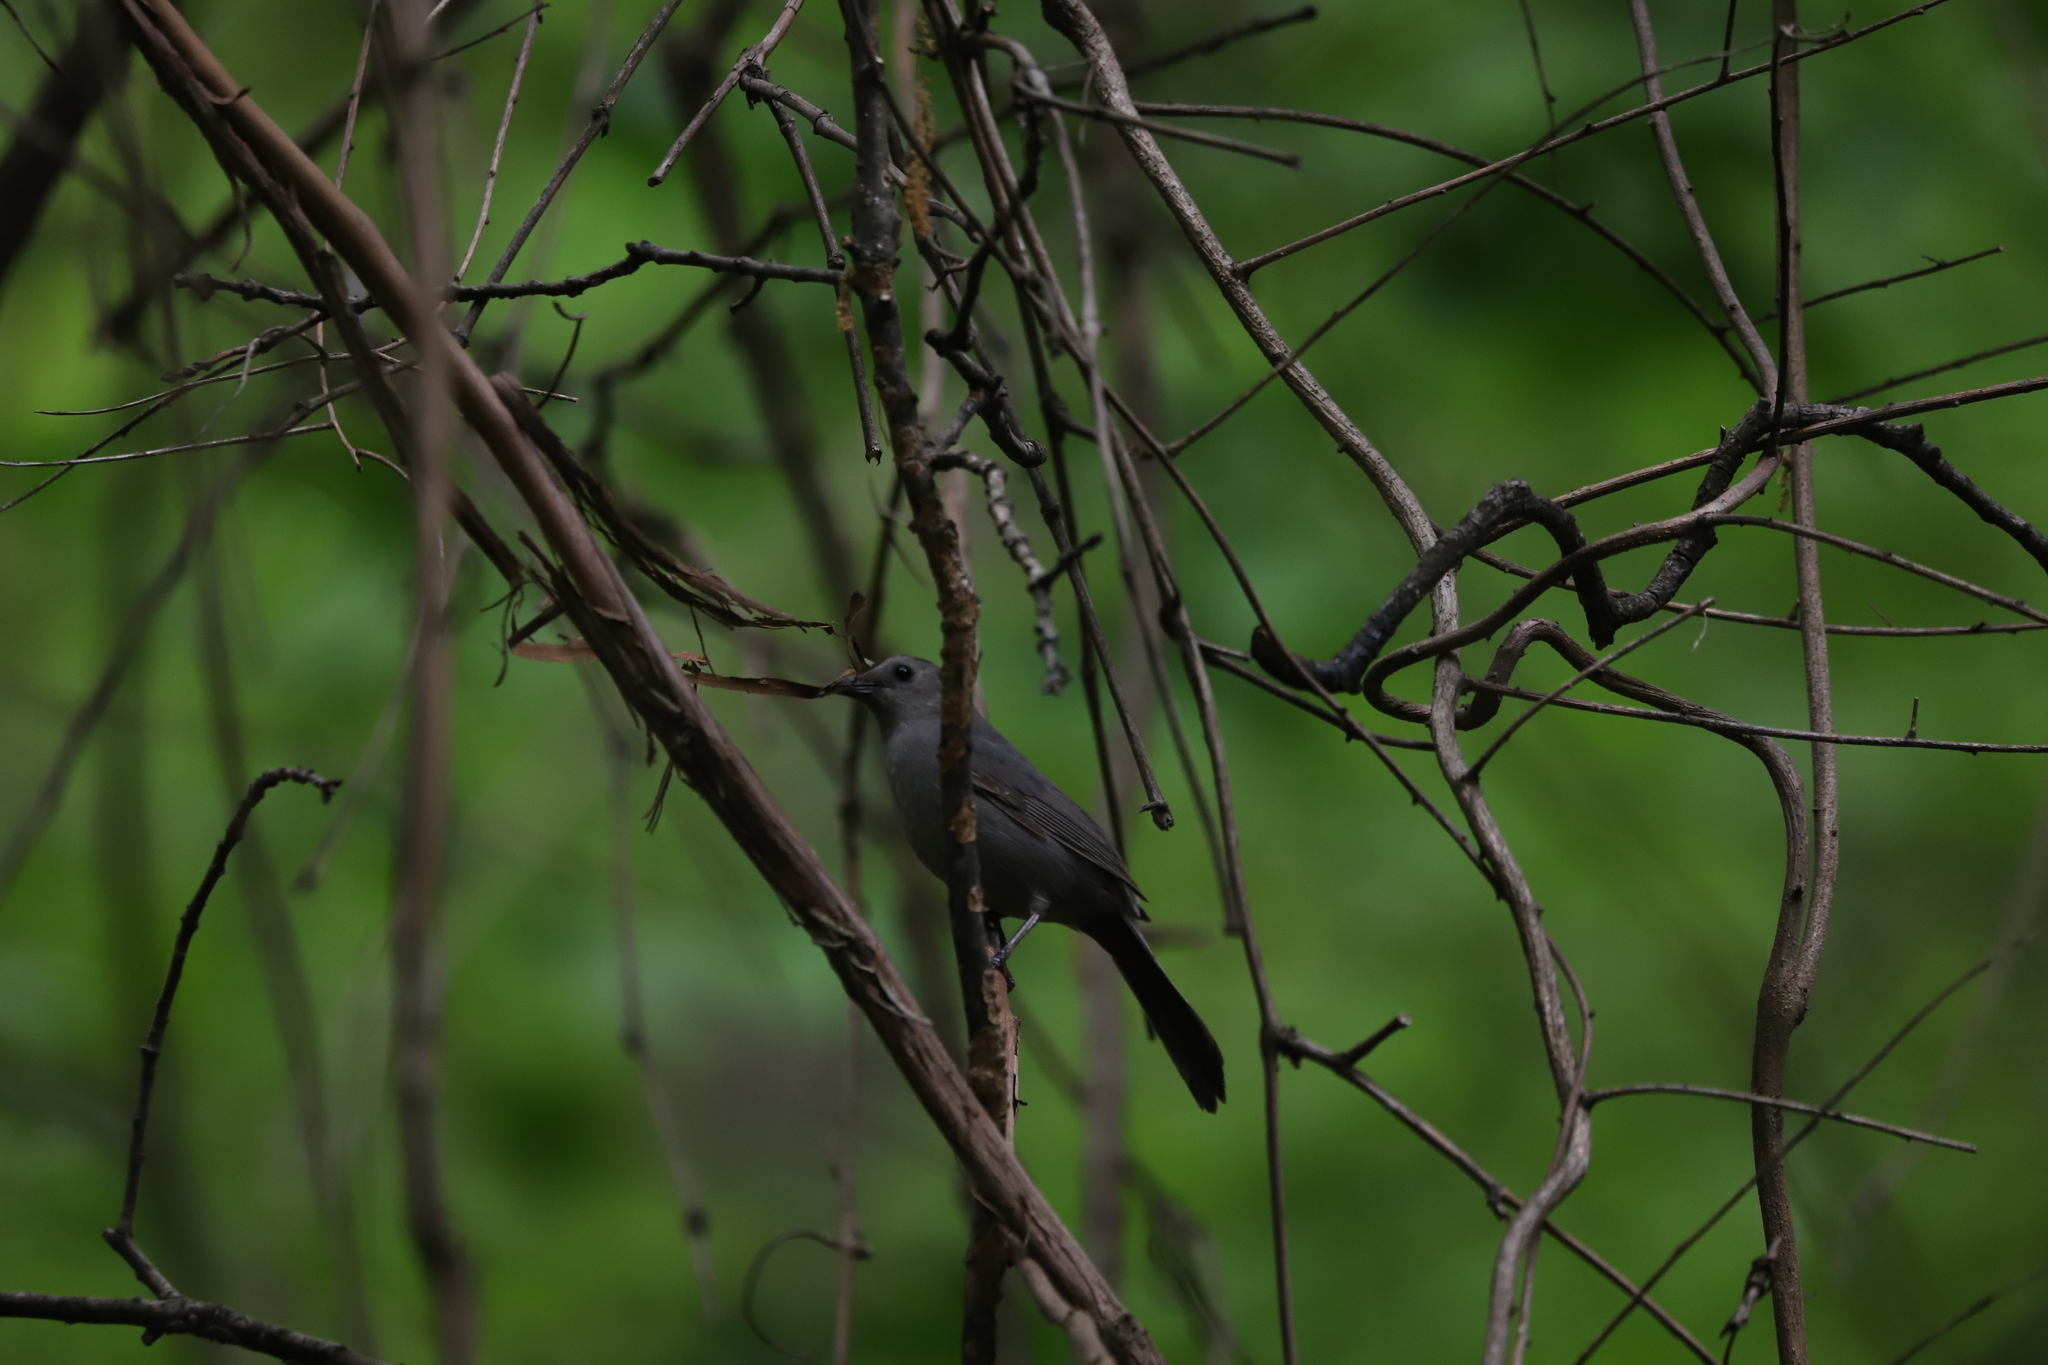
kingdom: Animalia
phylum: Chordata
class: Aves
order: Passeriformes
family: Mimidae
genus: Dumetella
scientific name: Dumetella carolinensis
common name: Gray catbird
